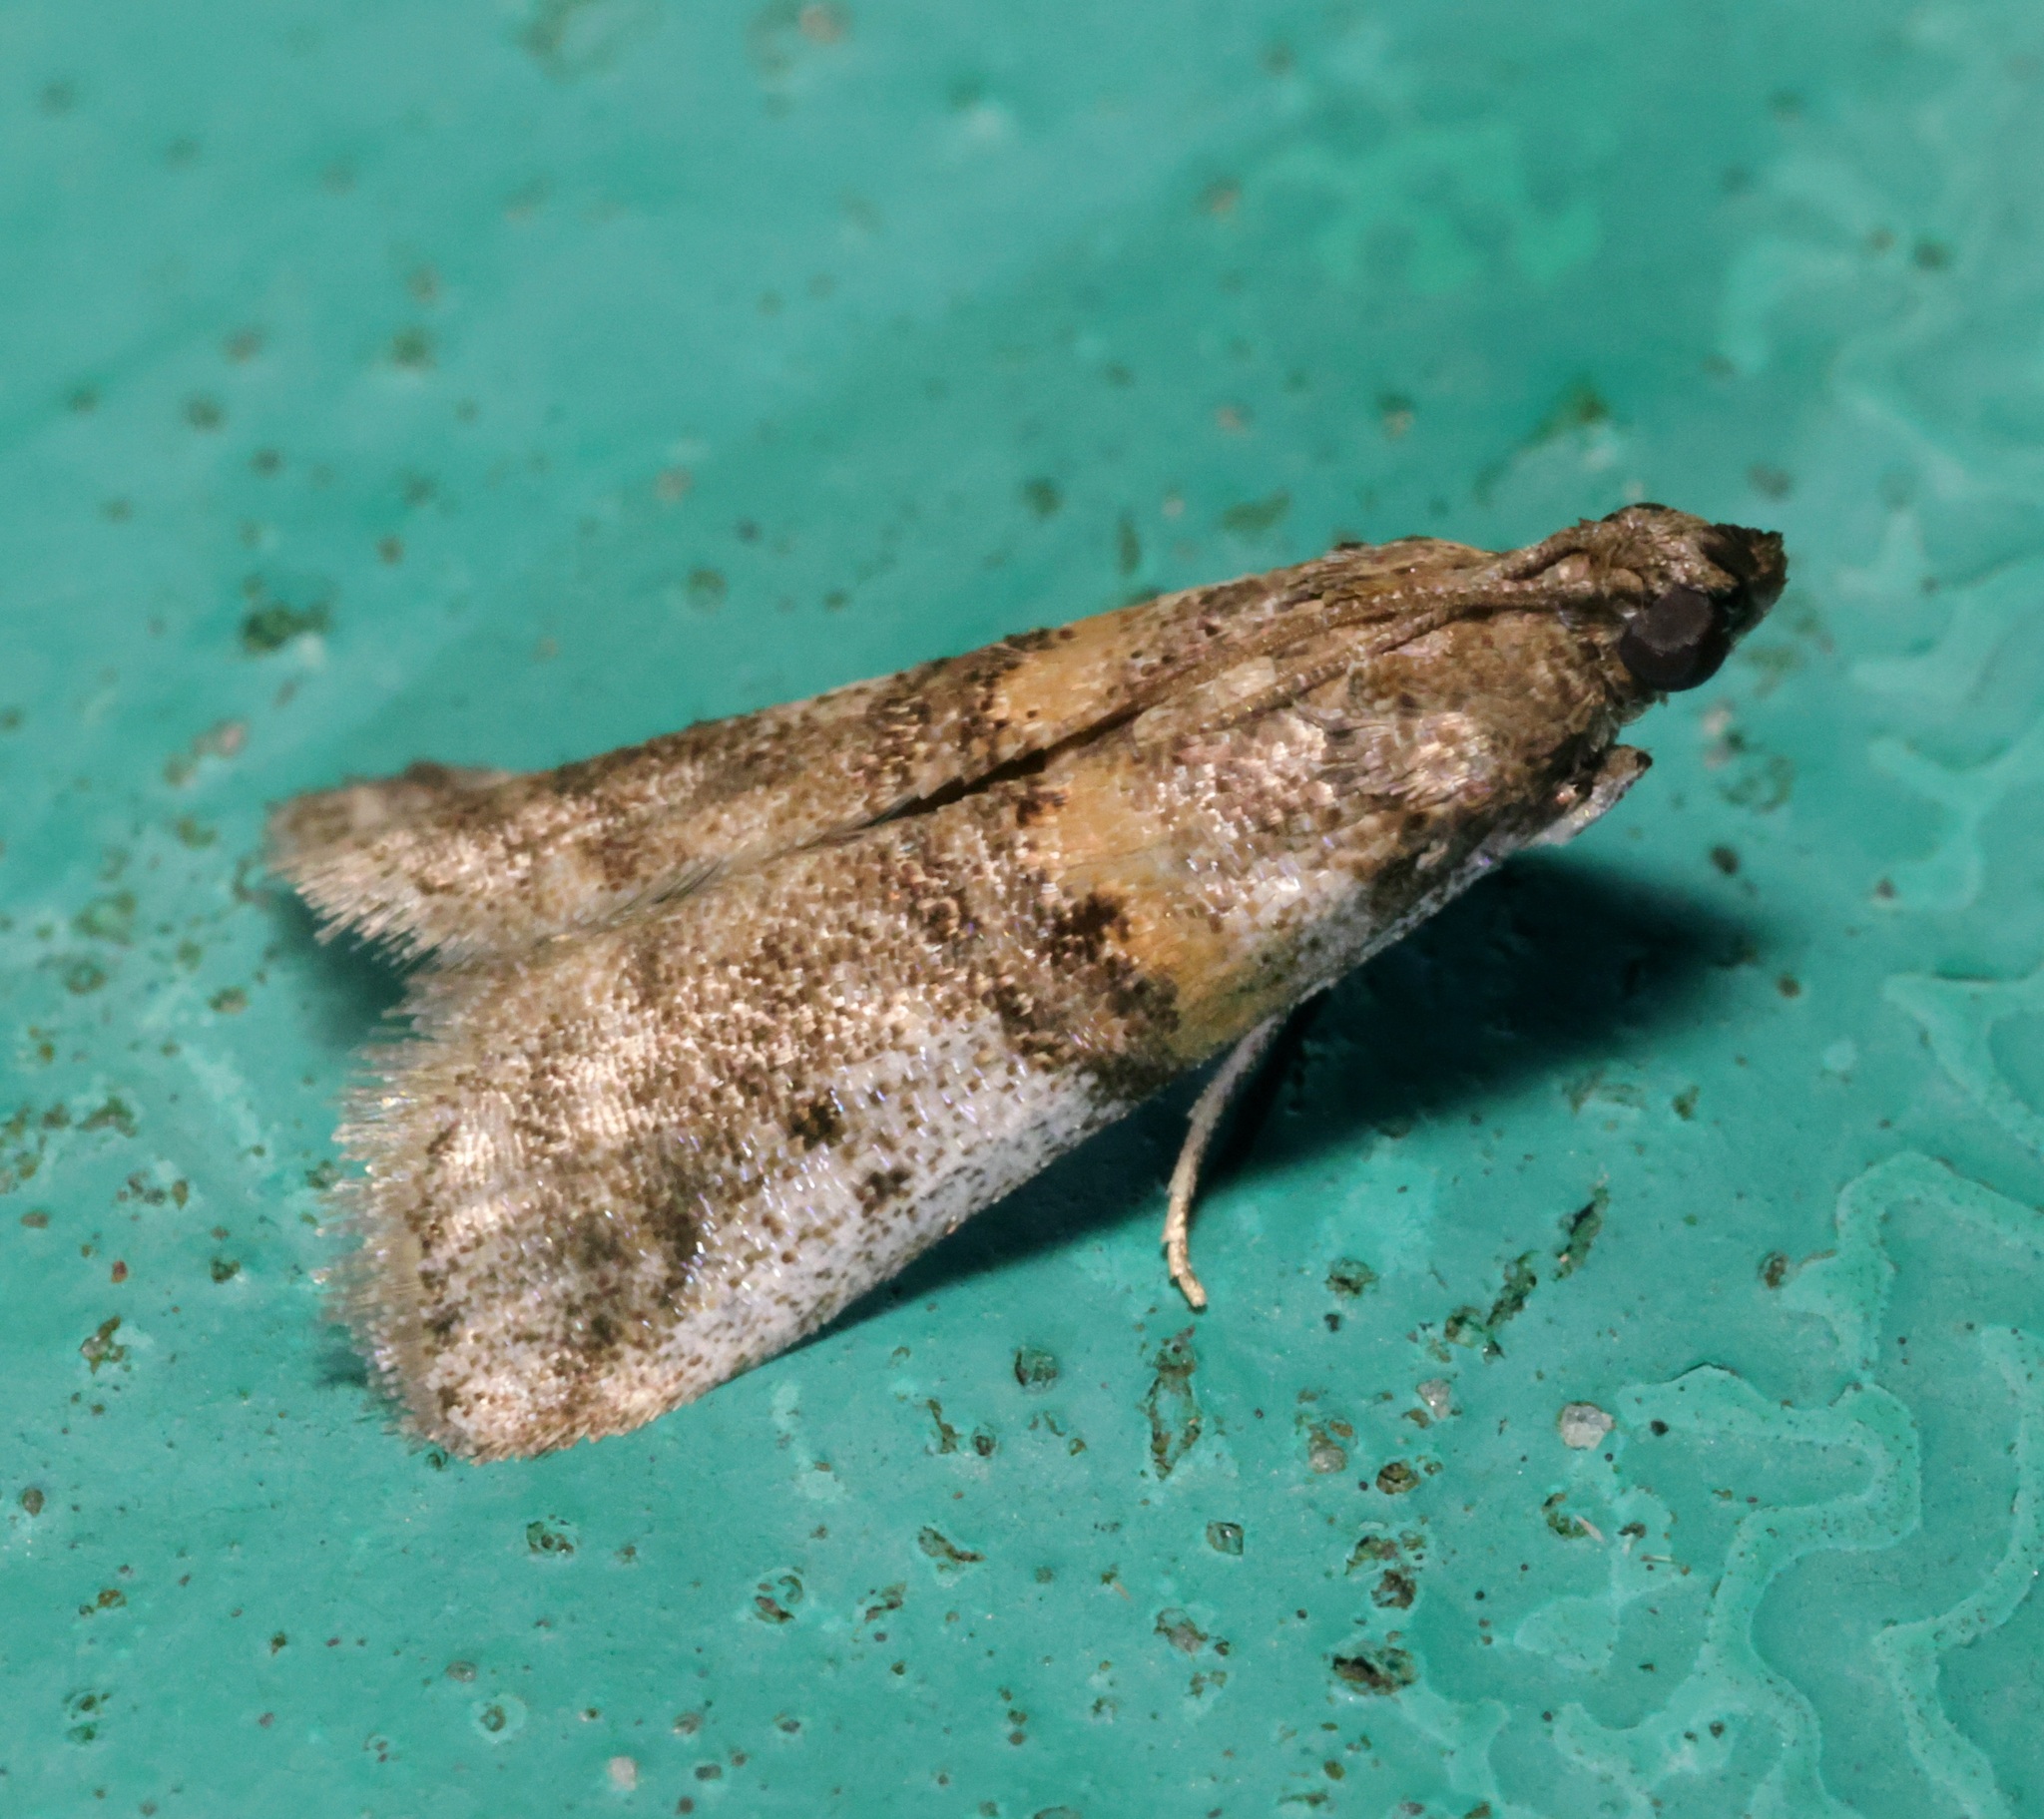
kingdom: Animalia
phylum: Arthropoda
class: Insecta
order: Lepidoptera
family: Pyralidae
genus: Acrobasis
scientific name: Acrobasis encaustella
